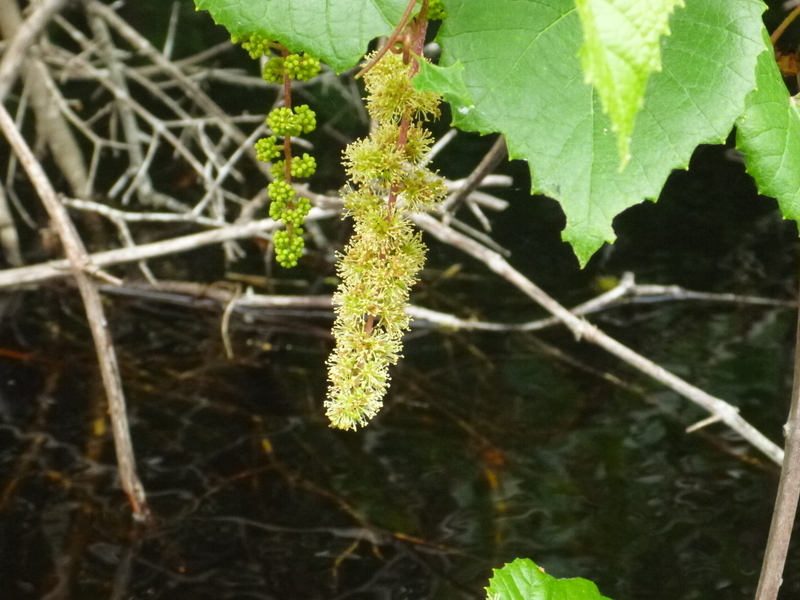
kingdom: Plantae
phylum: Tracheophyta
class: Magnoliopsida
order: Vitales
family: Vitaceae
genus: Vitis
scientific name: Vitis rotundifolia
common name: Muscadine grape
